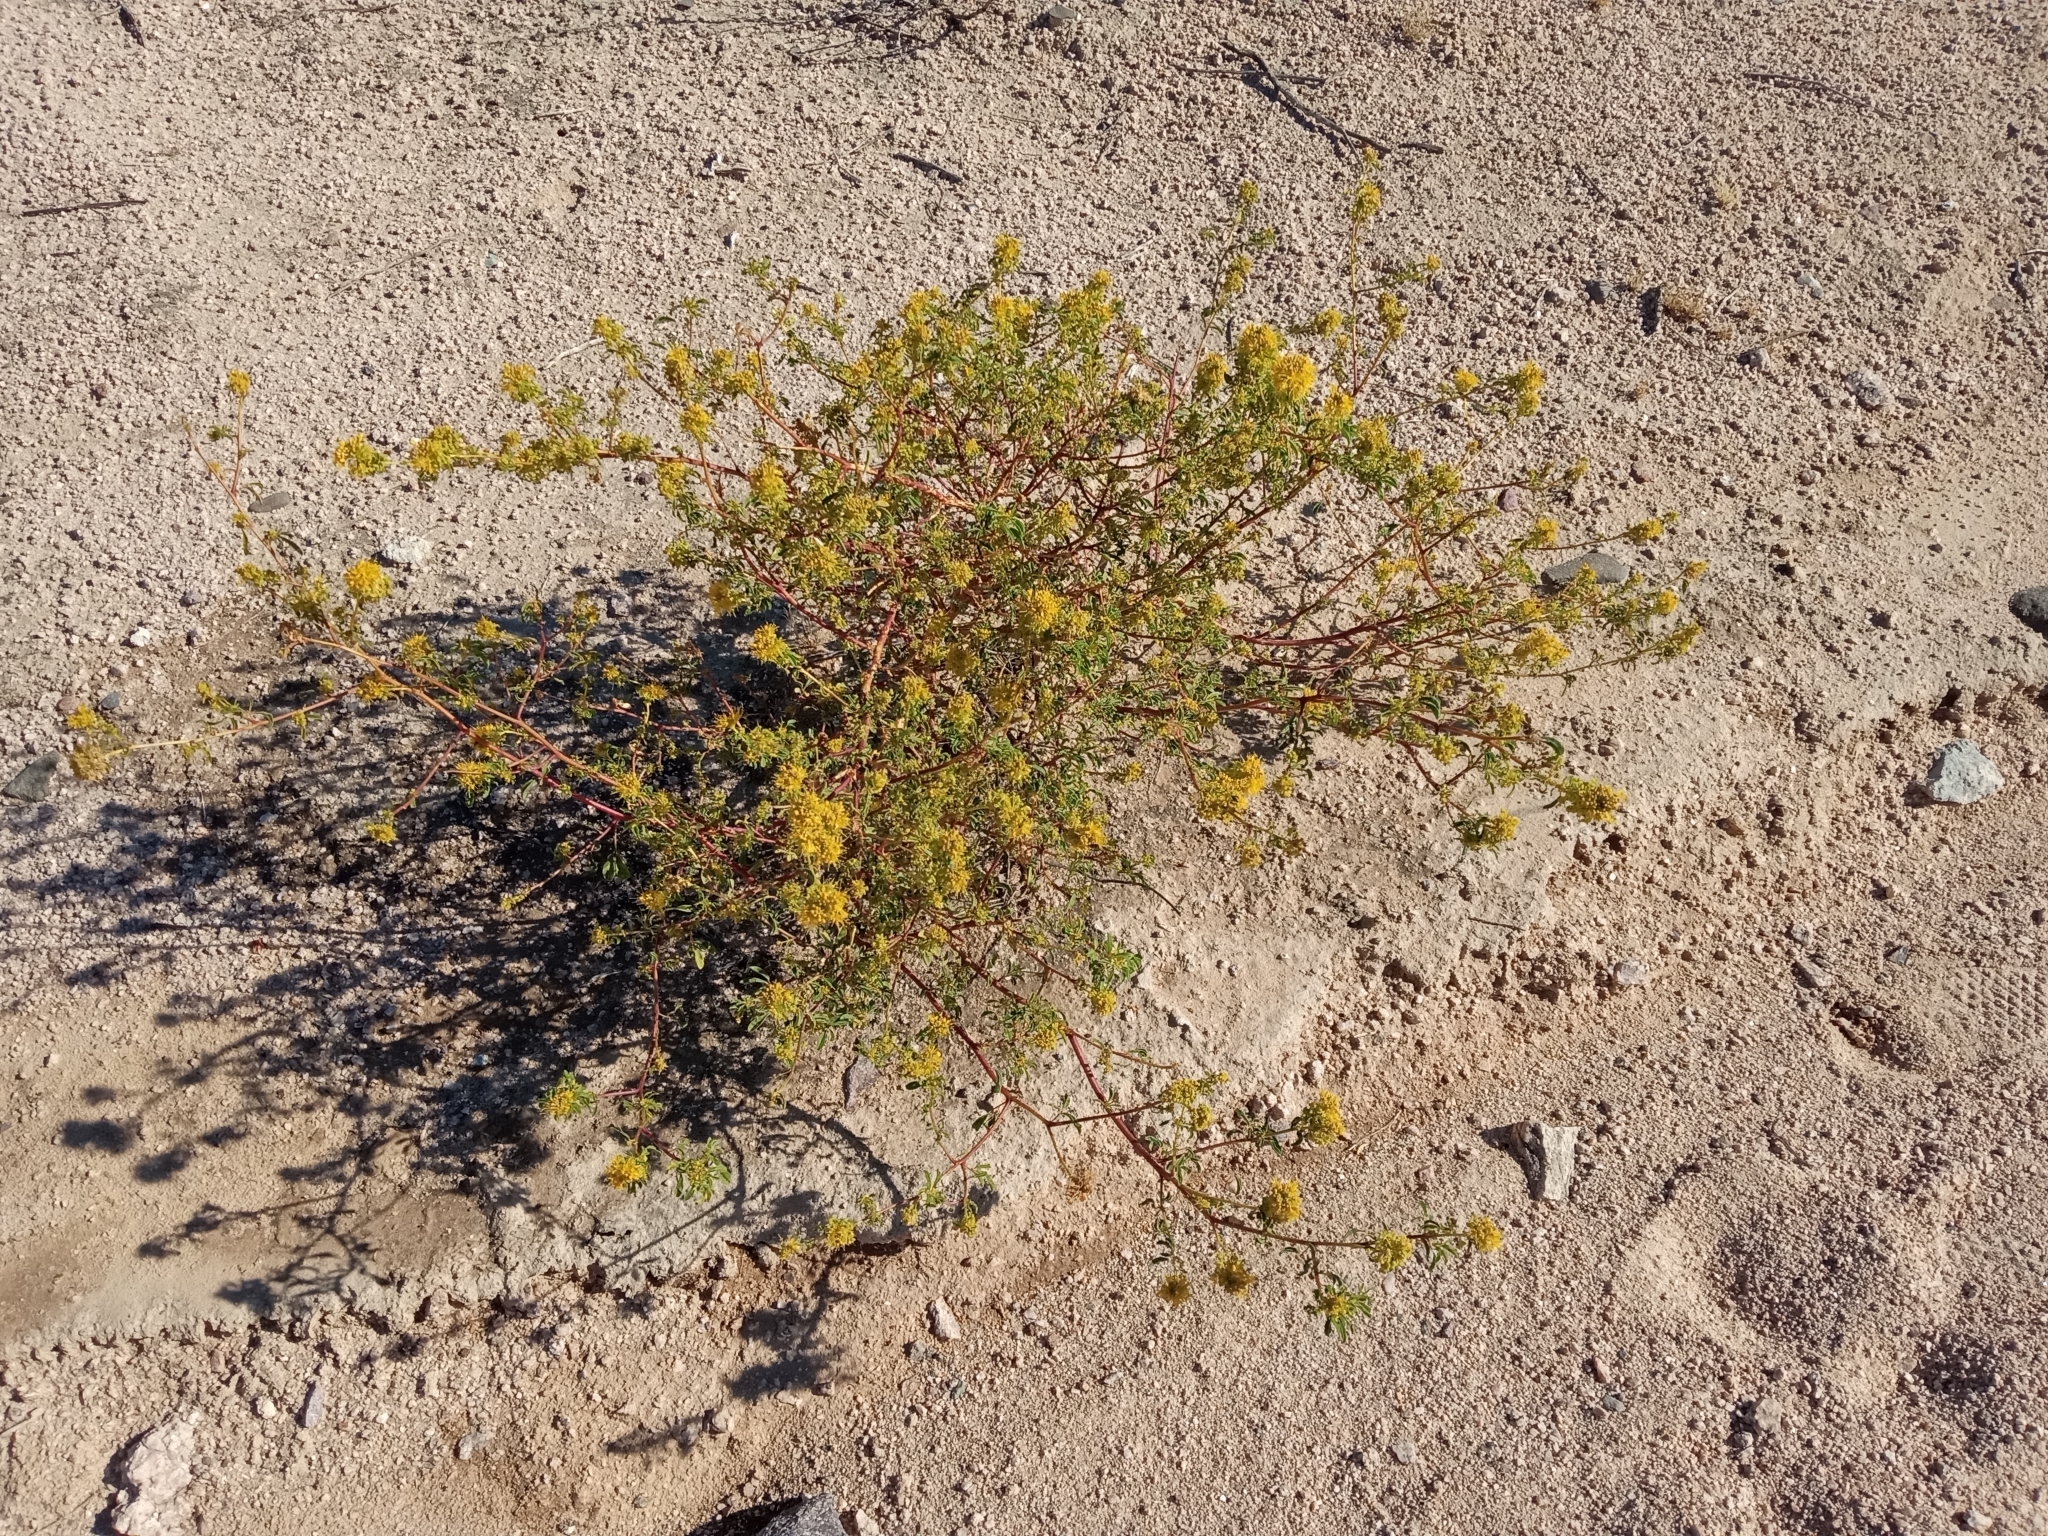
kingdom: Plantae
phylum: Tracheophyta
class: Magnoliopsida
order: Brassicales
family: Cleomaceae
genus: Cleomella
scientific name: Cleomella refracta
